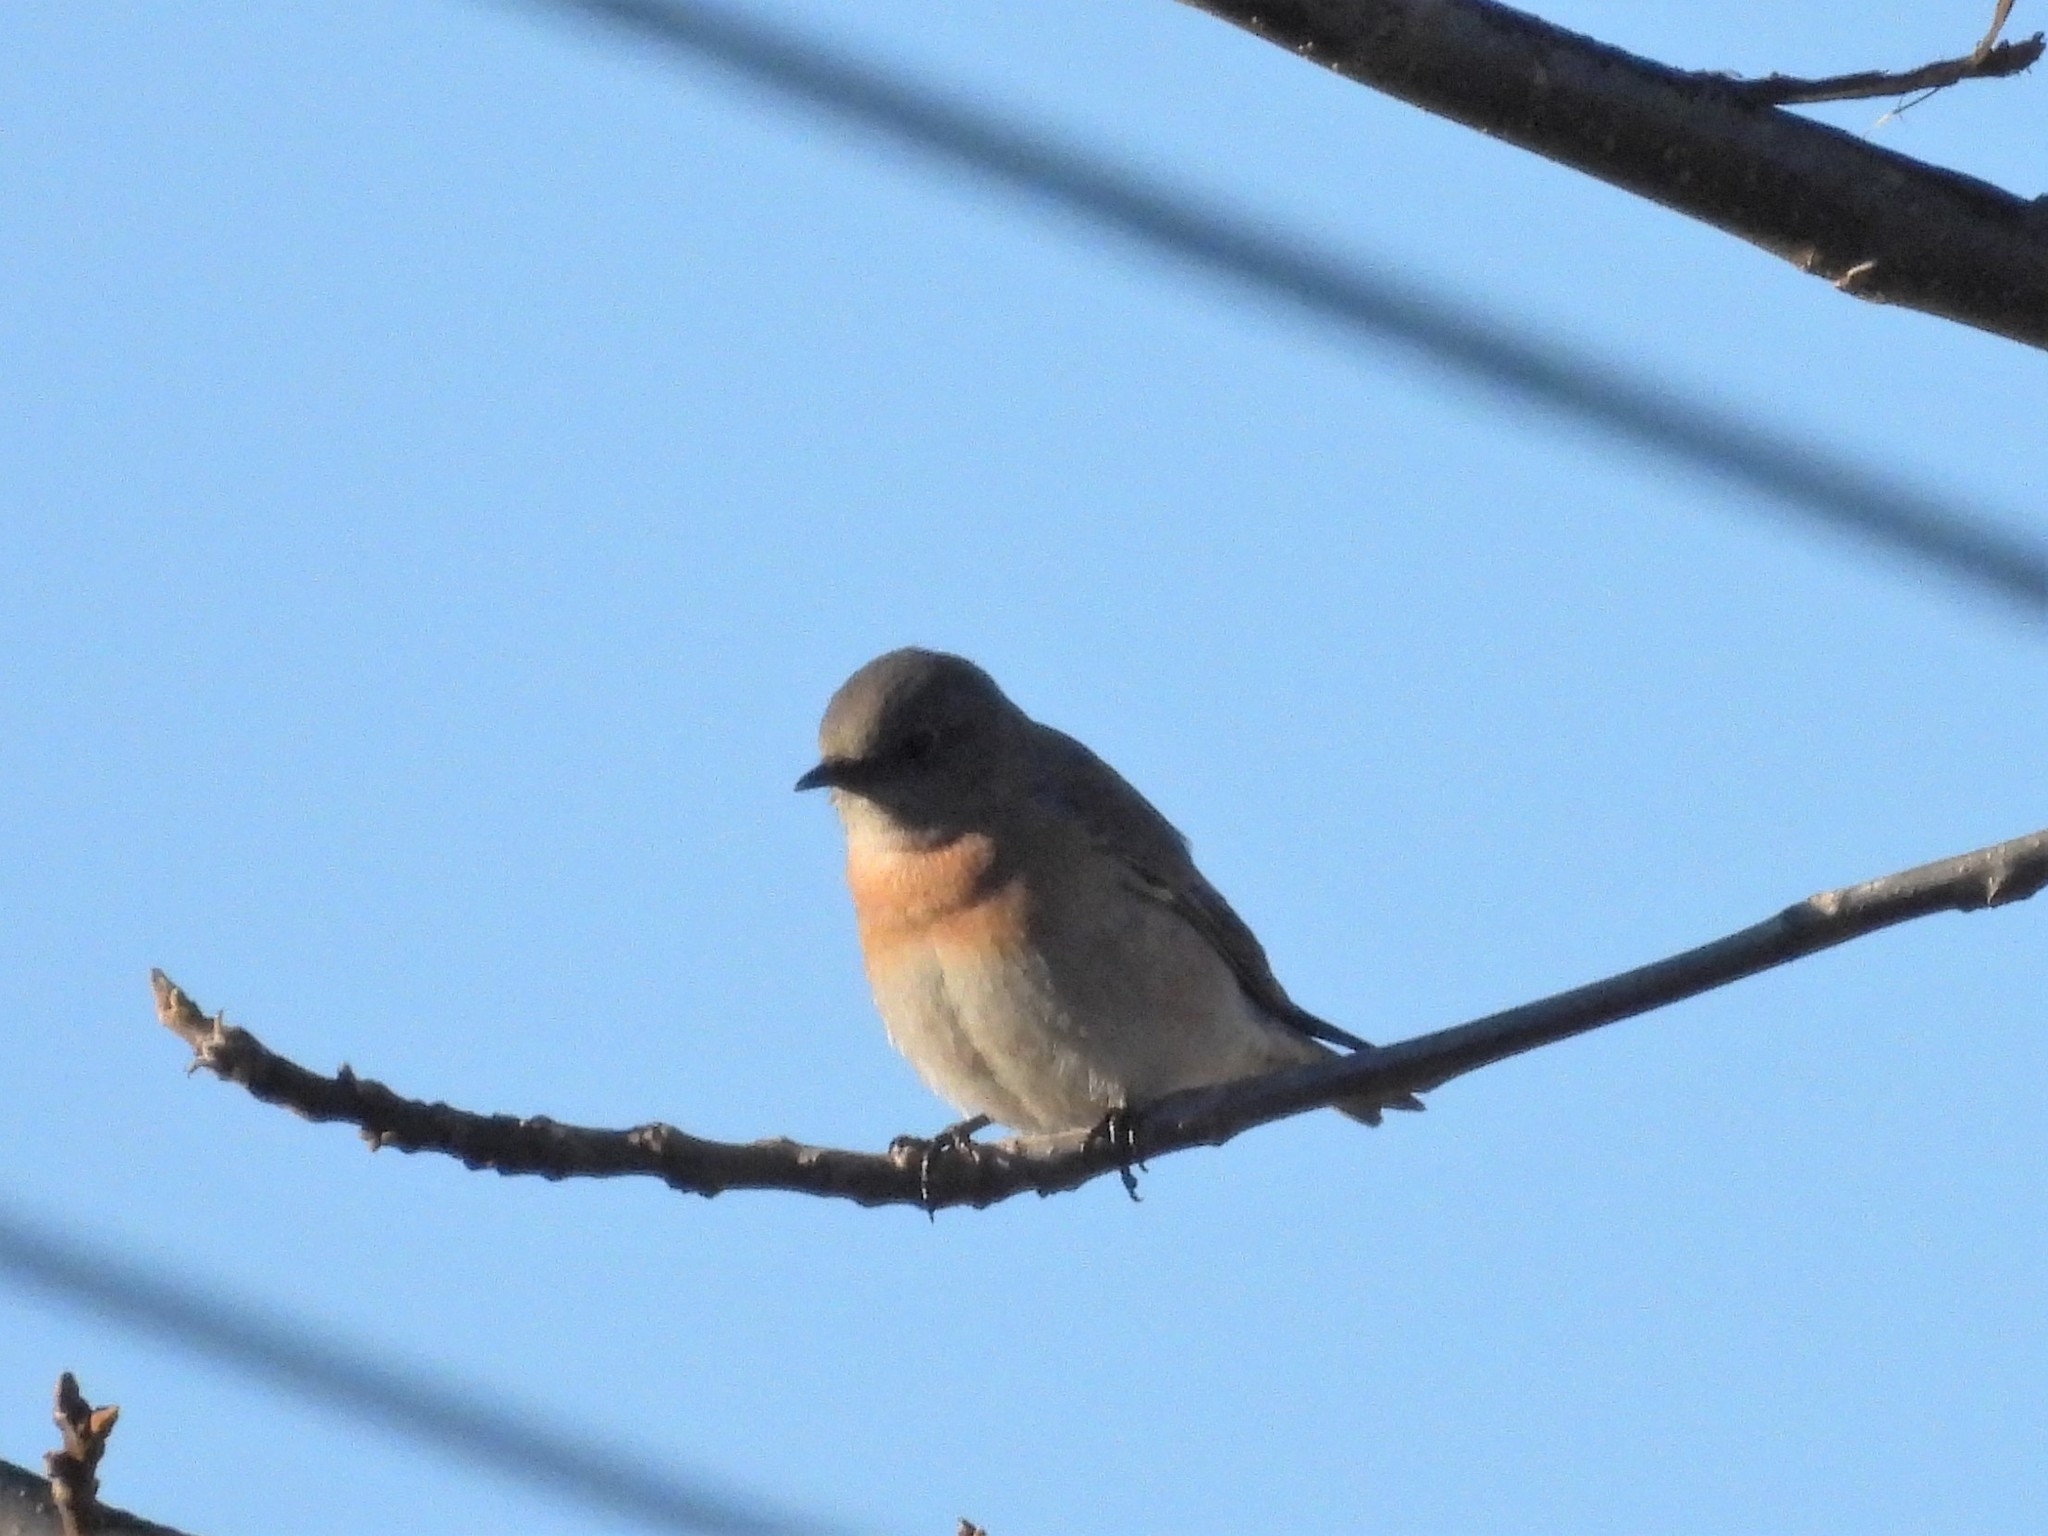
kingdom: Animalia
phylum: Chordata
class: Aves
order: Passeriformes
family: Turdidae
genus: Sialia
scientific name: Sialia mexicana
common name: Western bluebird
